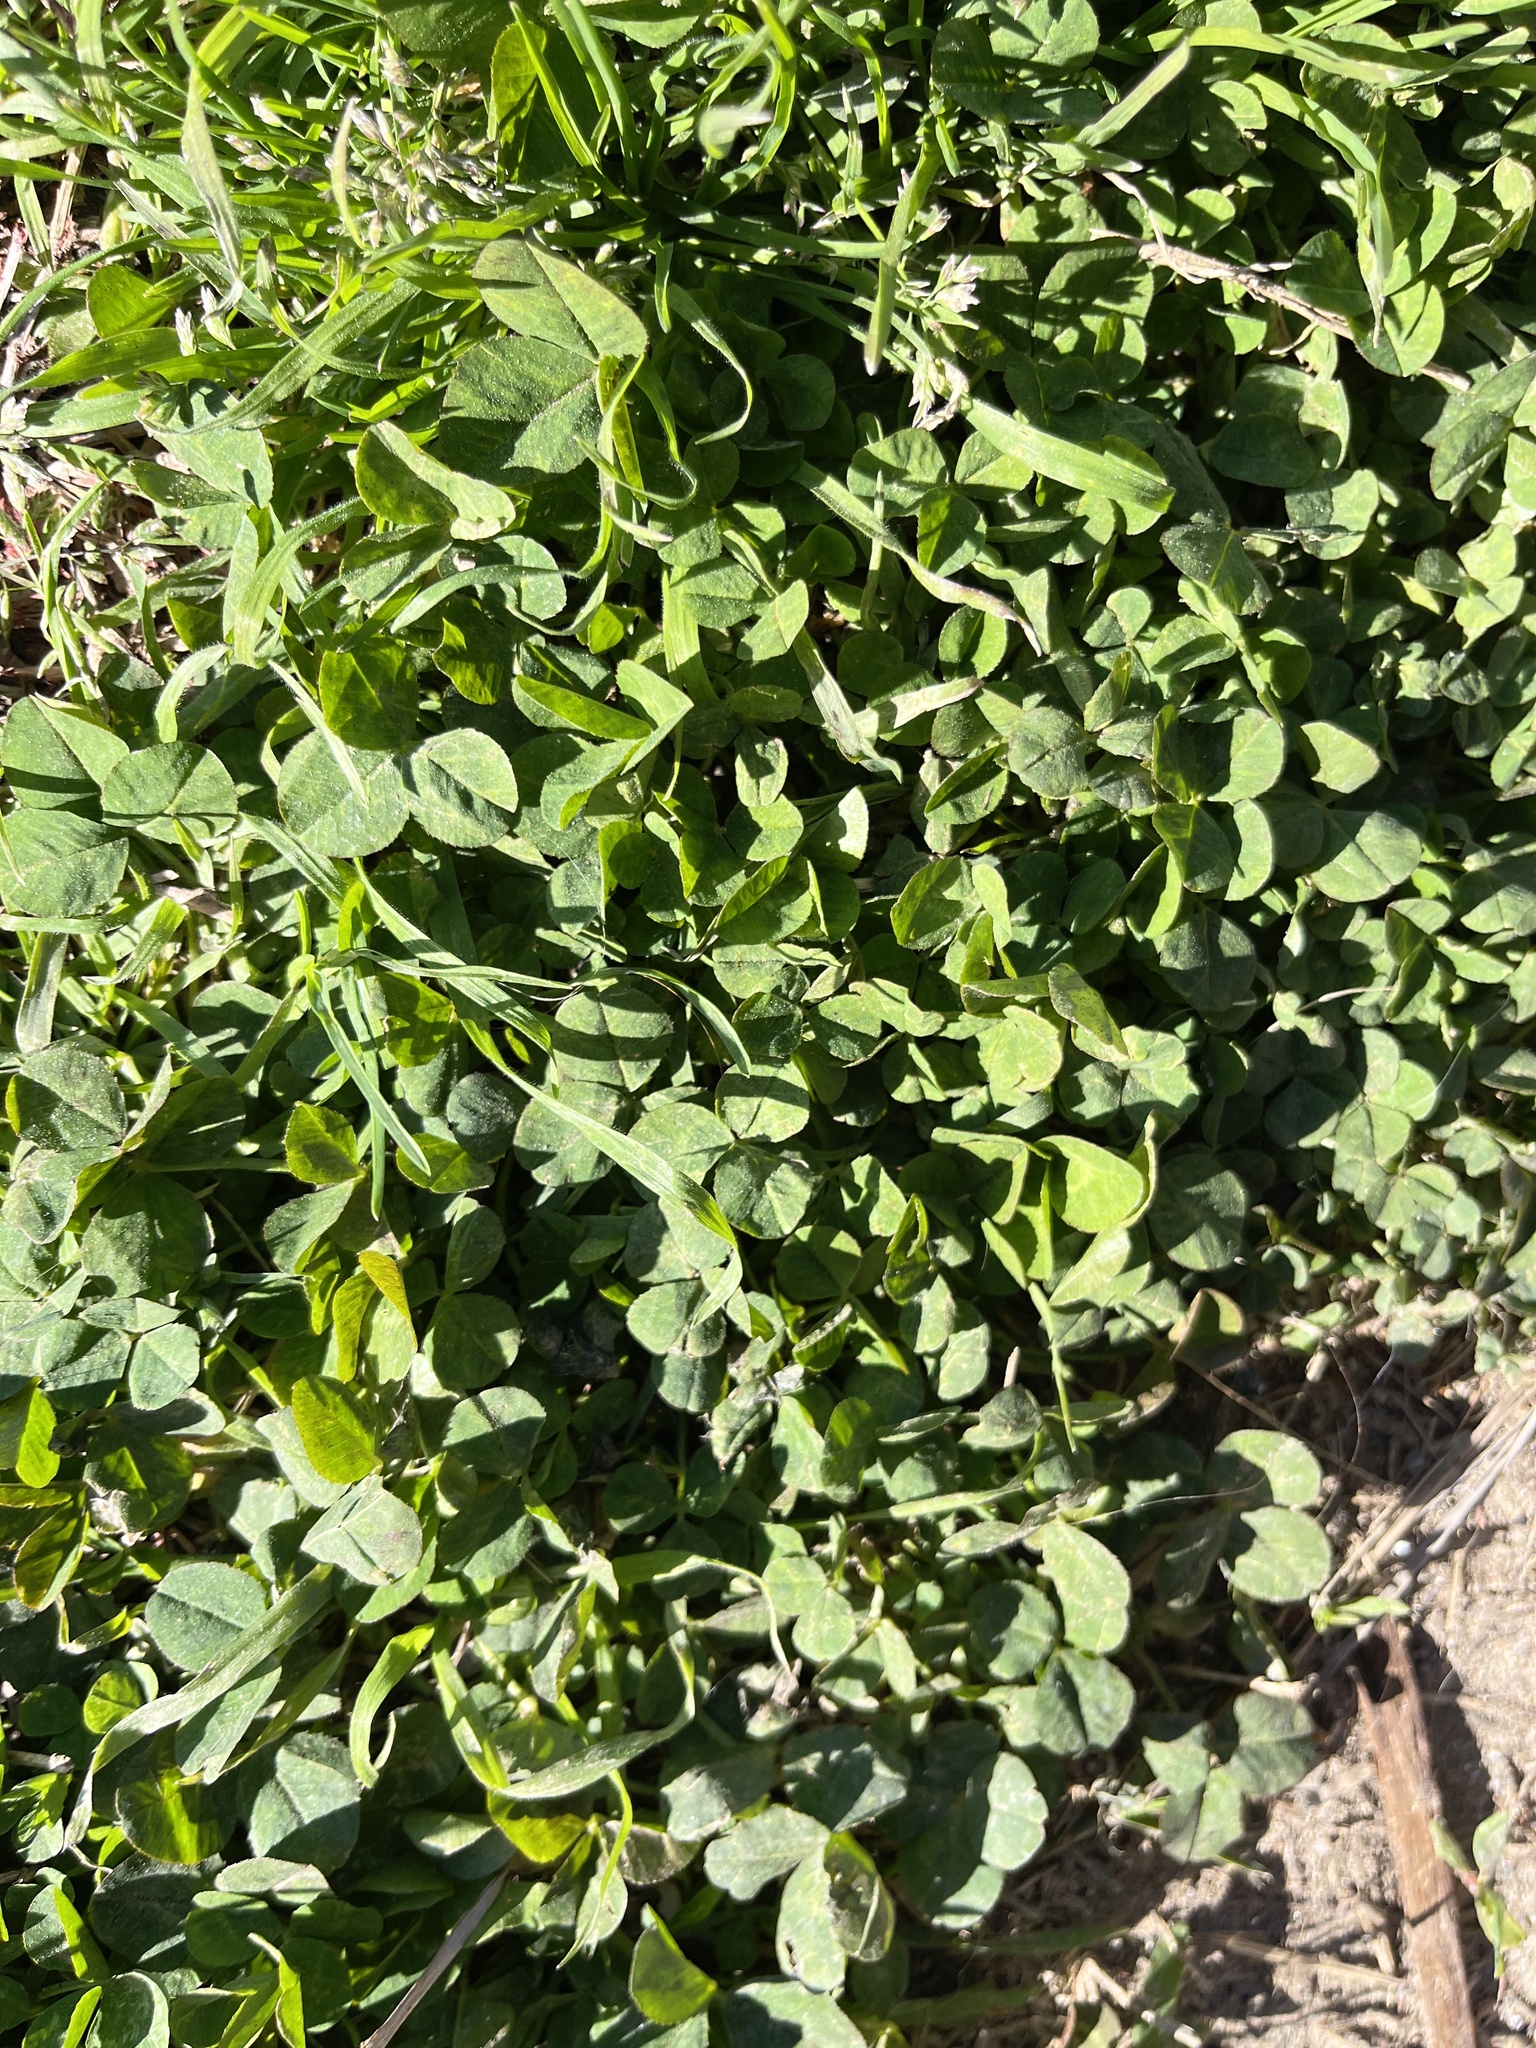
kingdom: Plantae
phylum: Tracheophyta
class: Magnoliopsida
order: Fabales
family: Fabaceae
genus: Trifolium
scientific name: Trifolium repens
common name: White clover
